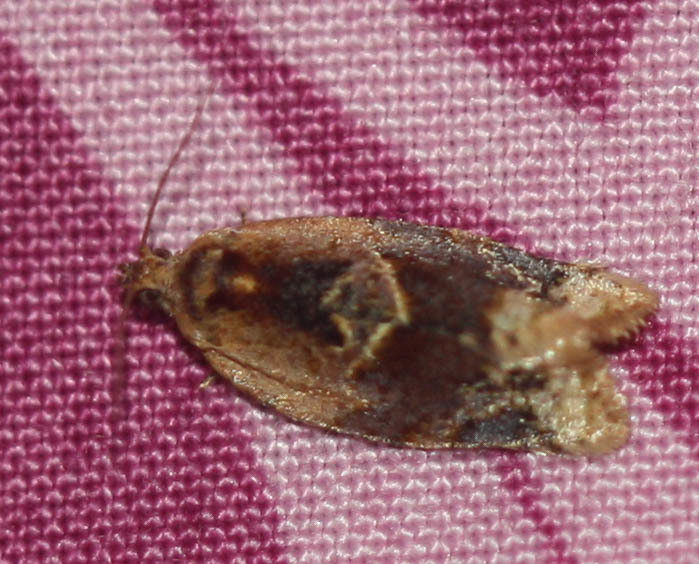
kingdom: Animalia
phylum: Arthropoda
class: Insecta
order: Lepidoptera
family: Tortricidae
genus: Argyrotaenia
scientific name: Argyrotaenia velutinana
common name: Red-banded leafroller moth
